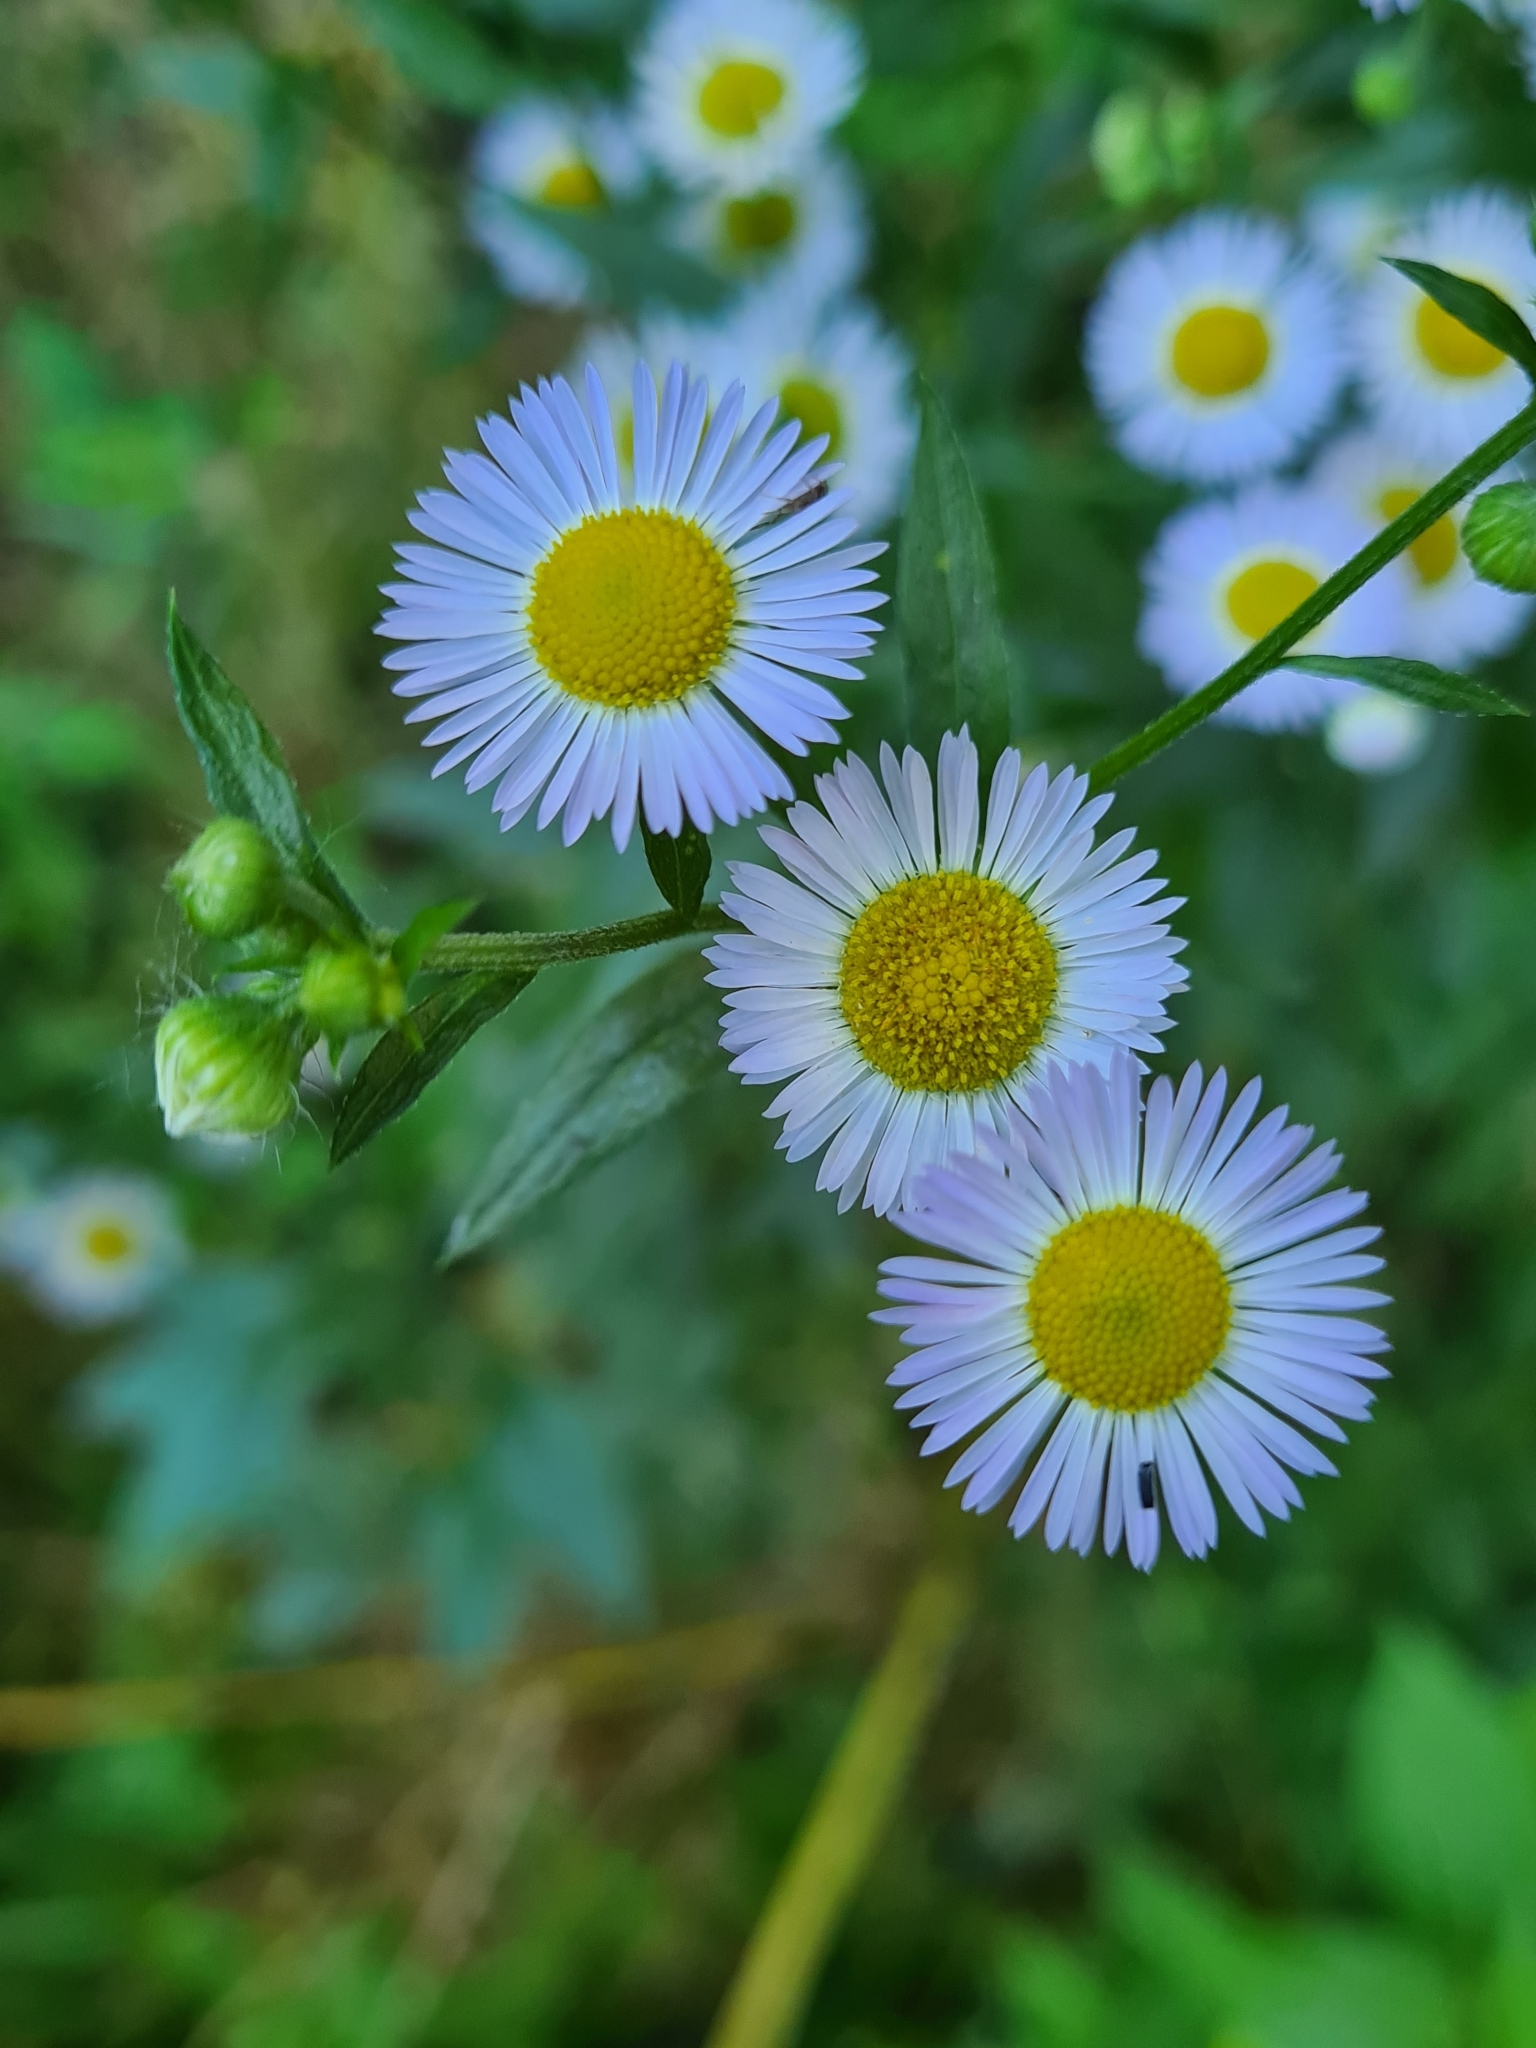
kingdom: Plantae
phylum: Tracheophyta
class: Magnoliopsida
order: Asterales
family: Asteraceae
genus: Erigeron
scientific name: Erigeron annuus
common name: Tall fleabane
